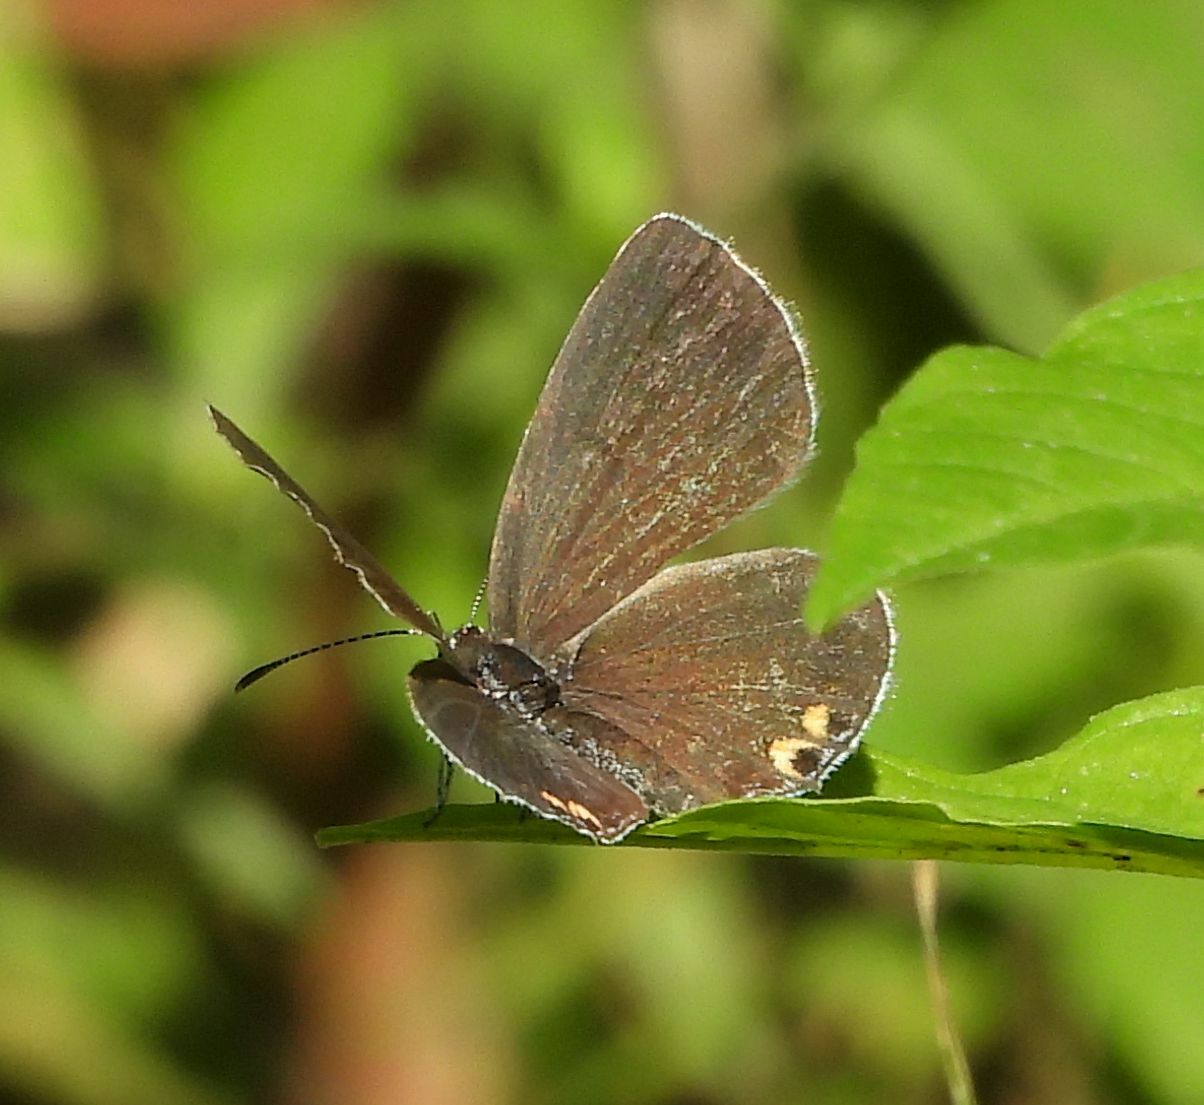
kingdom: Animalia
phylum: Arthropoda
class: Insecta
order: Lepidoptera
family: Lycaenidae
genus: Elkalyce
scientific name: Elkalyce comyntas
